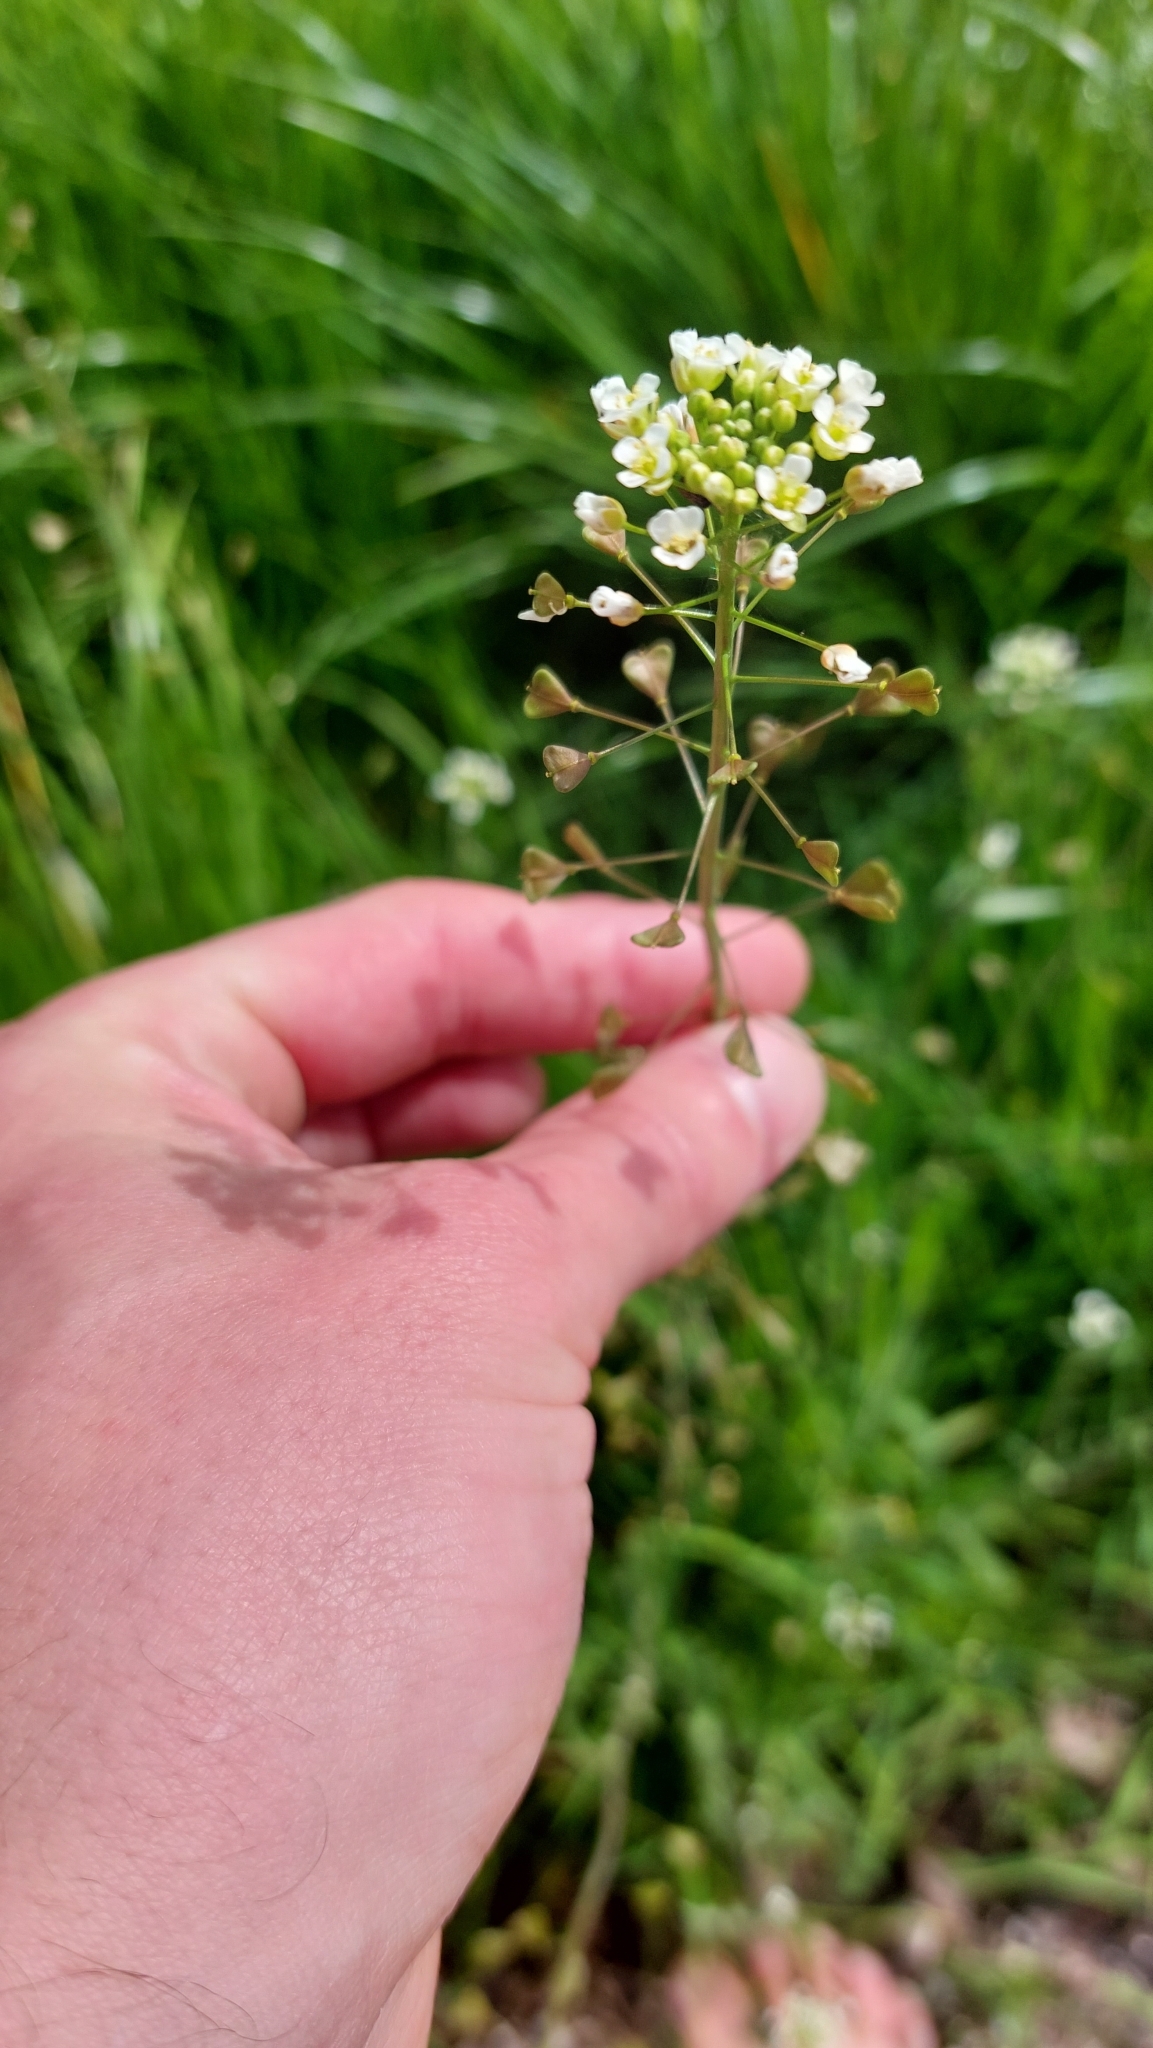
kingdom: Plantae
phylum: Tracheophyta
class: Magnoliopsida
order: Brassicales
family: Brassicaceae
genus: Capsella
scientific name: Capsella bursa-pastoris
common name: Shepherd's purse
